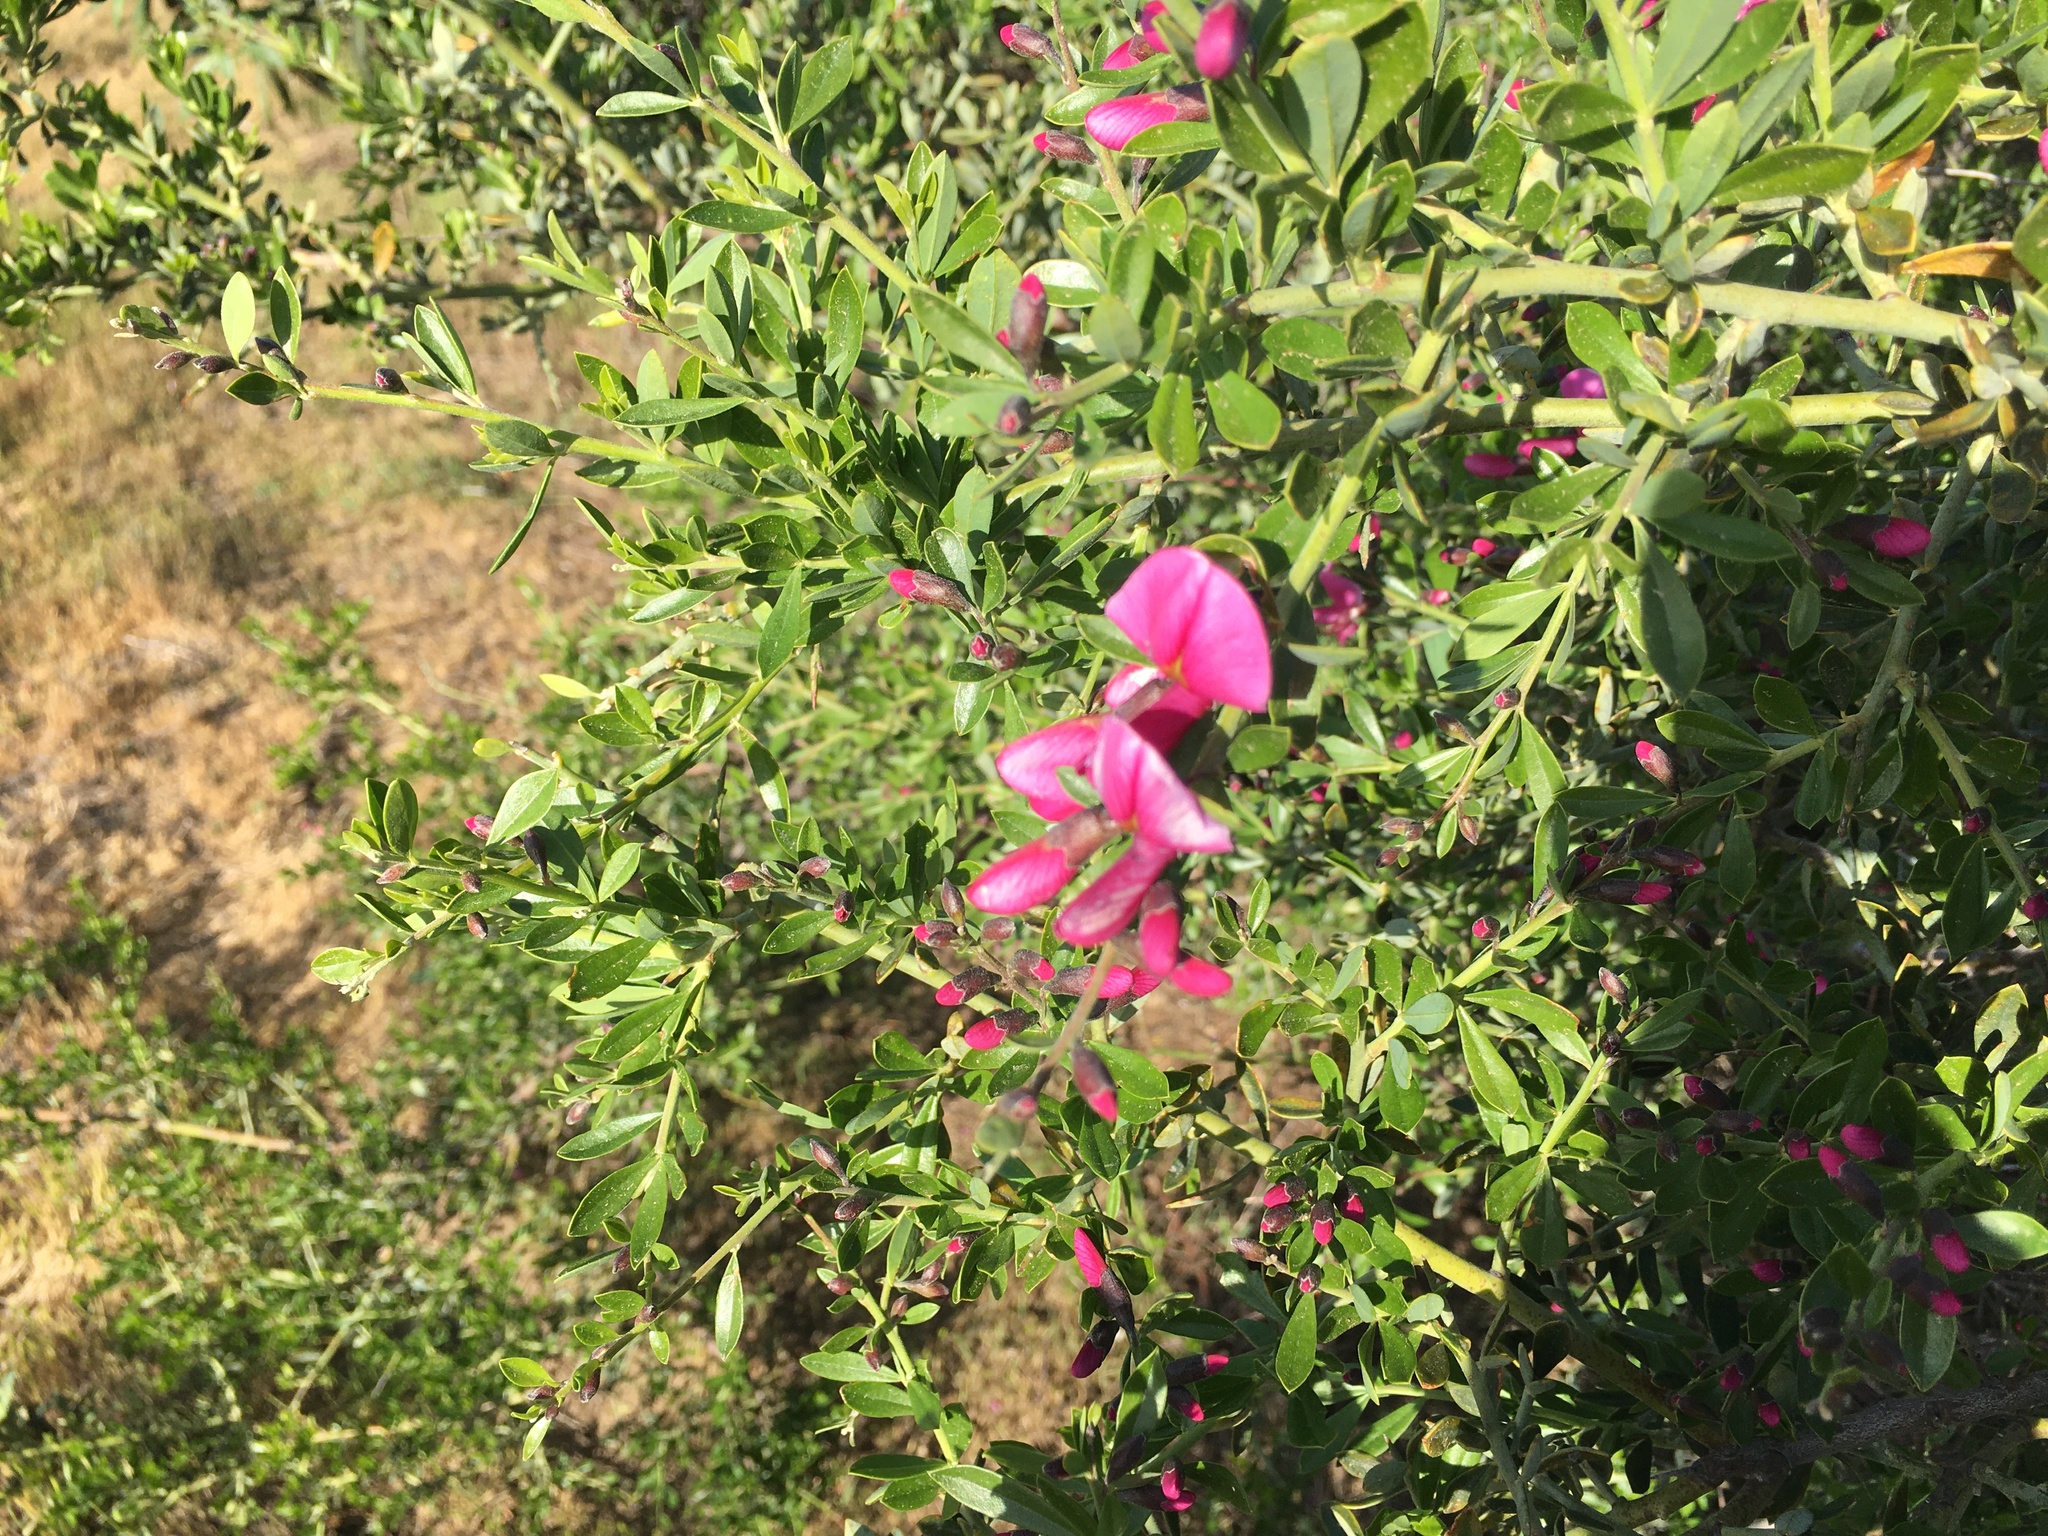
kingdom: Plantae
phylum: Tracheophyta
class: Magnoliopsida
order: Fabales
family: Fabaceae
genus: Pickeringia
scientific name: Pickeringia montana
